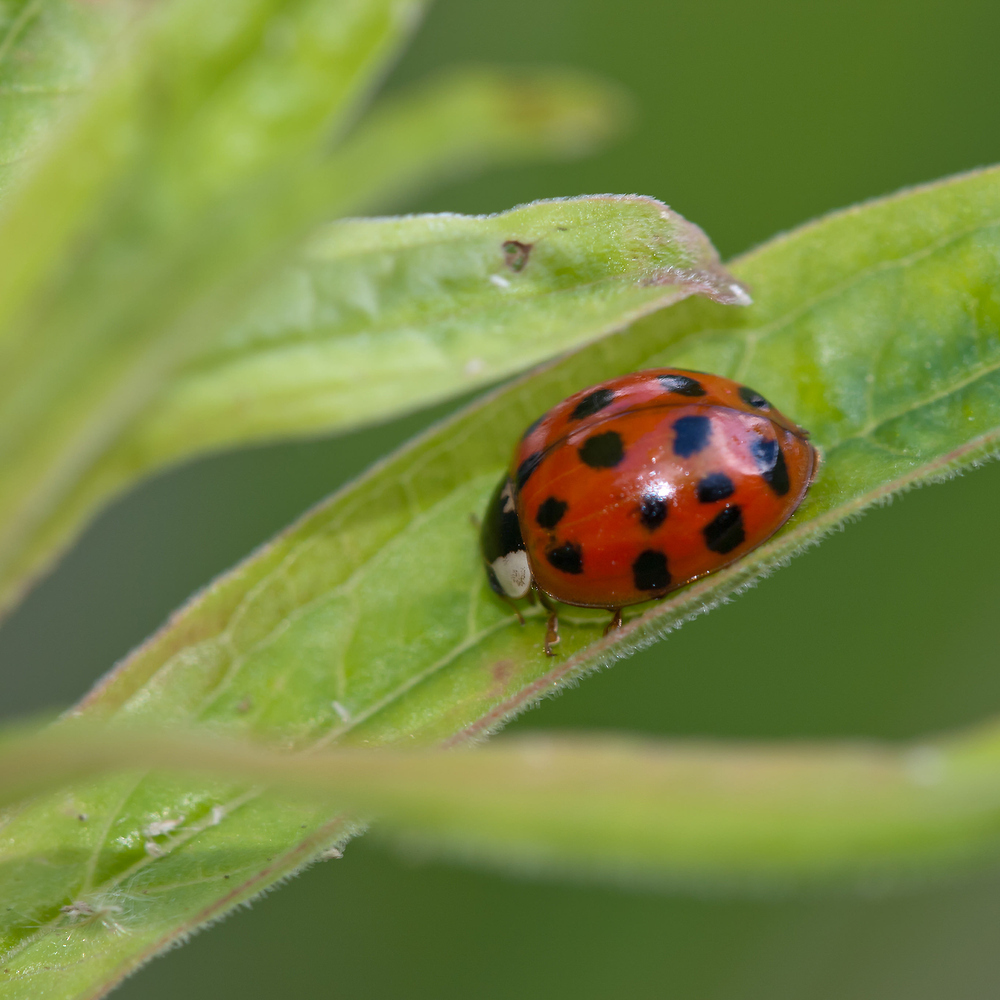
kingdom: Animalia
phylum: Arthropoda
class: Insecta
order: Coleoptera
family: Coccinellidae
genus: Harmonia
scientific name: Harmonia axyridis
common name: Harlequin ladybird
